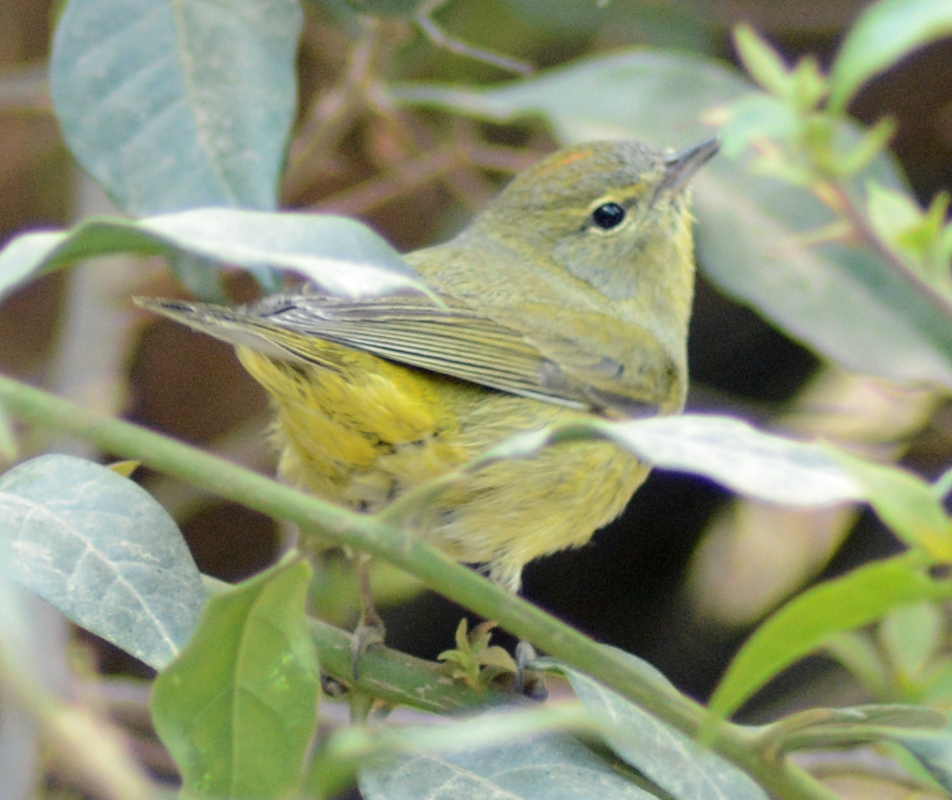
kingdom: Animalia
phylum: Chordata
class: Aves
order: Passeriformes
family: Parulidae
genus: Leiothlypis
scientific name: Leiothlypis celata
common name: Orange-crowned warbler
